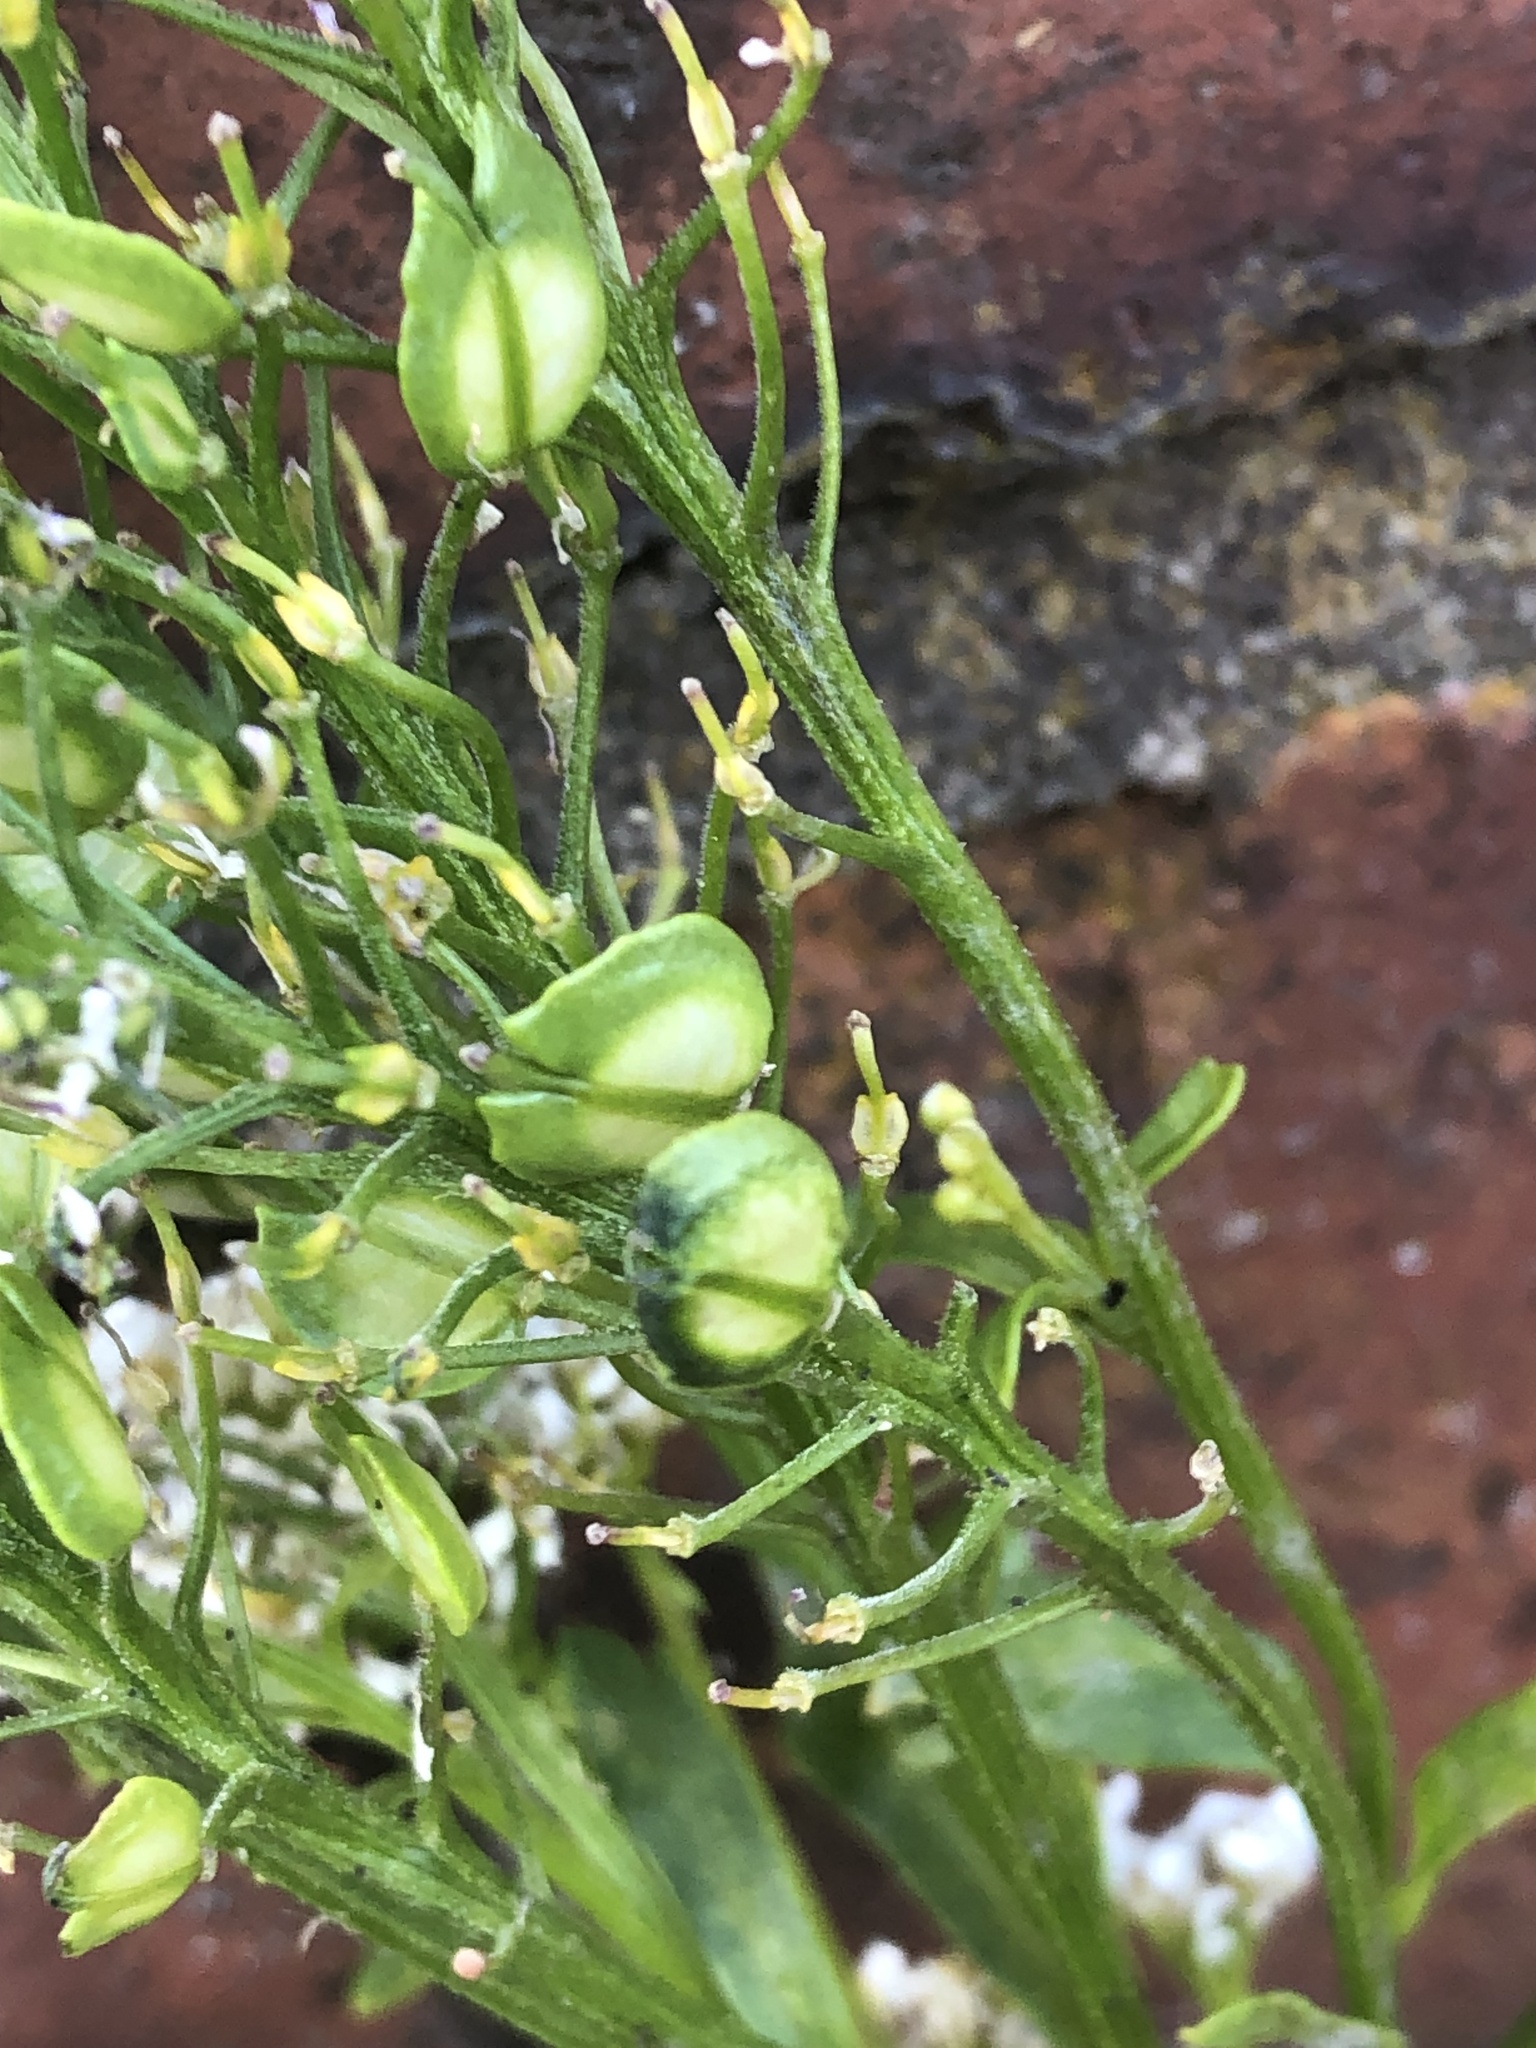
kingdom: Plantae
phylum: Tracheophyta
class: Magnoliopsida
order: Brassicales
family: Brassicaceae
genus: Iberis
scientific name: Iberis amara
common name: Annual candytuft
